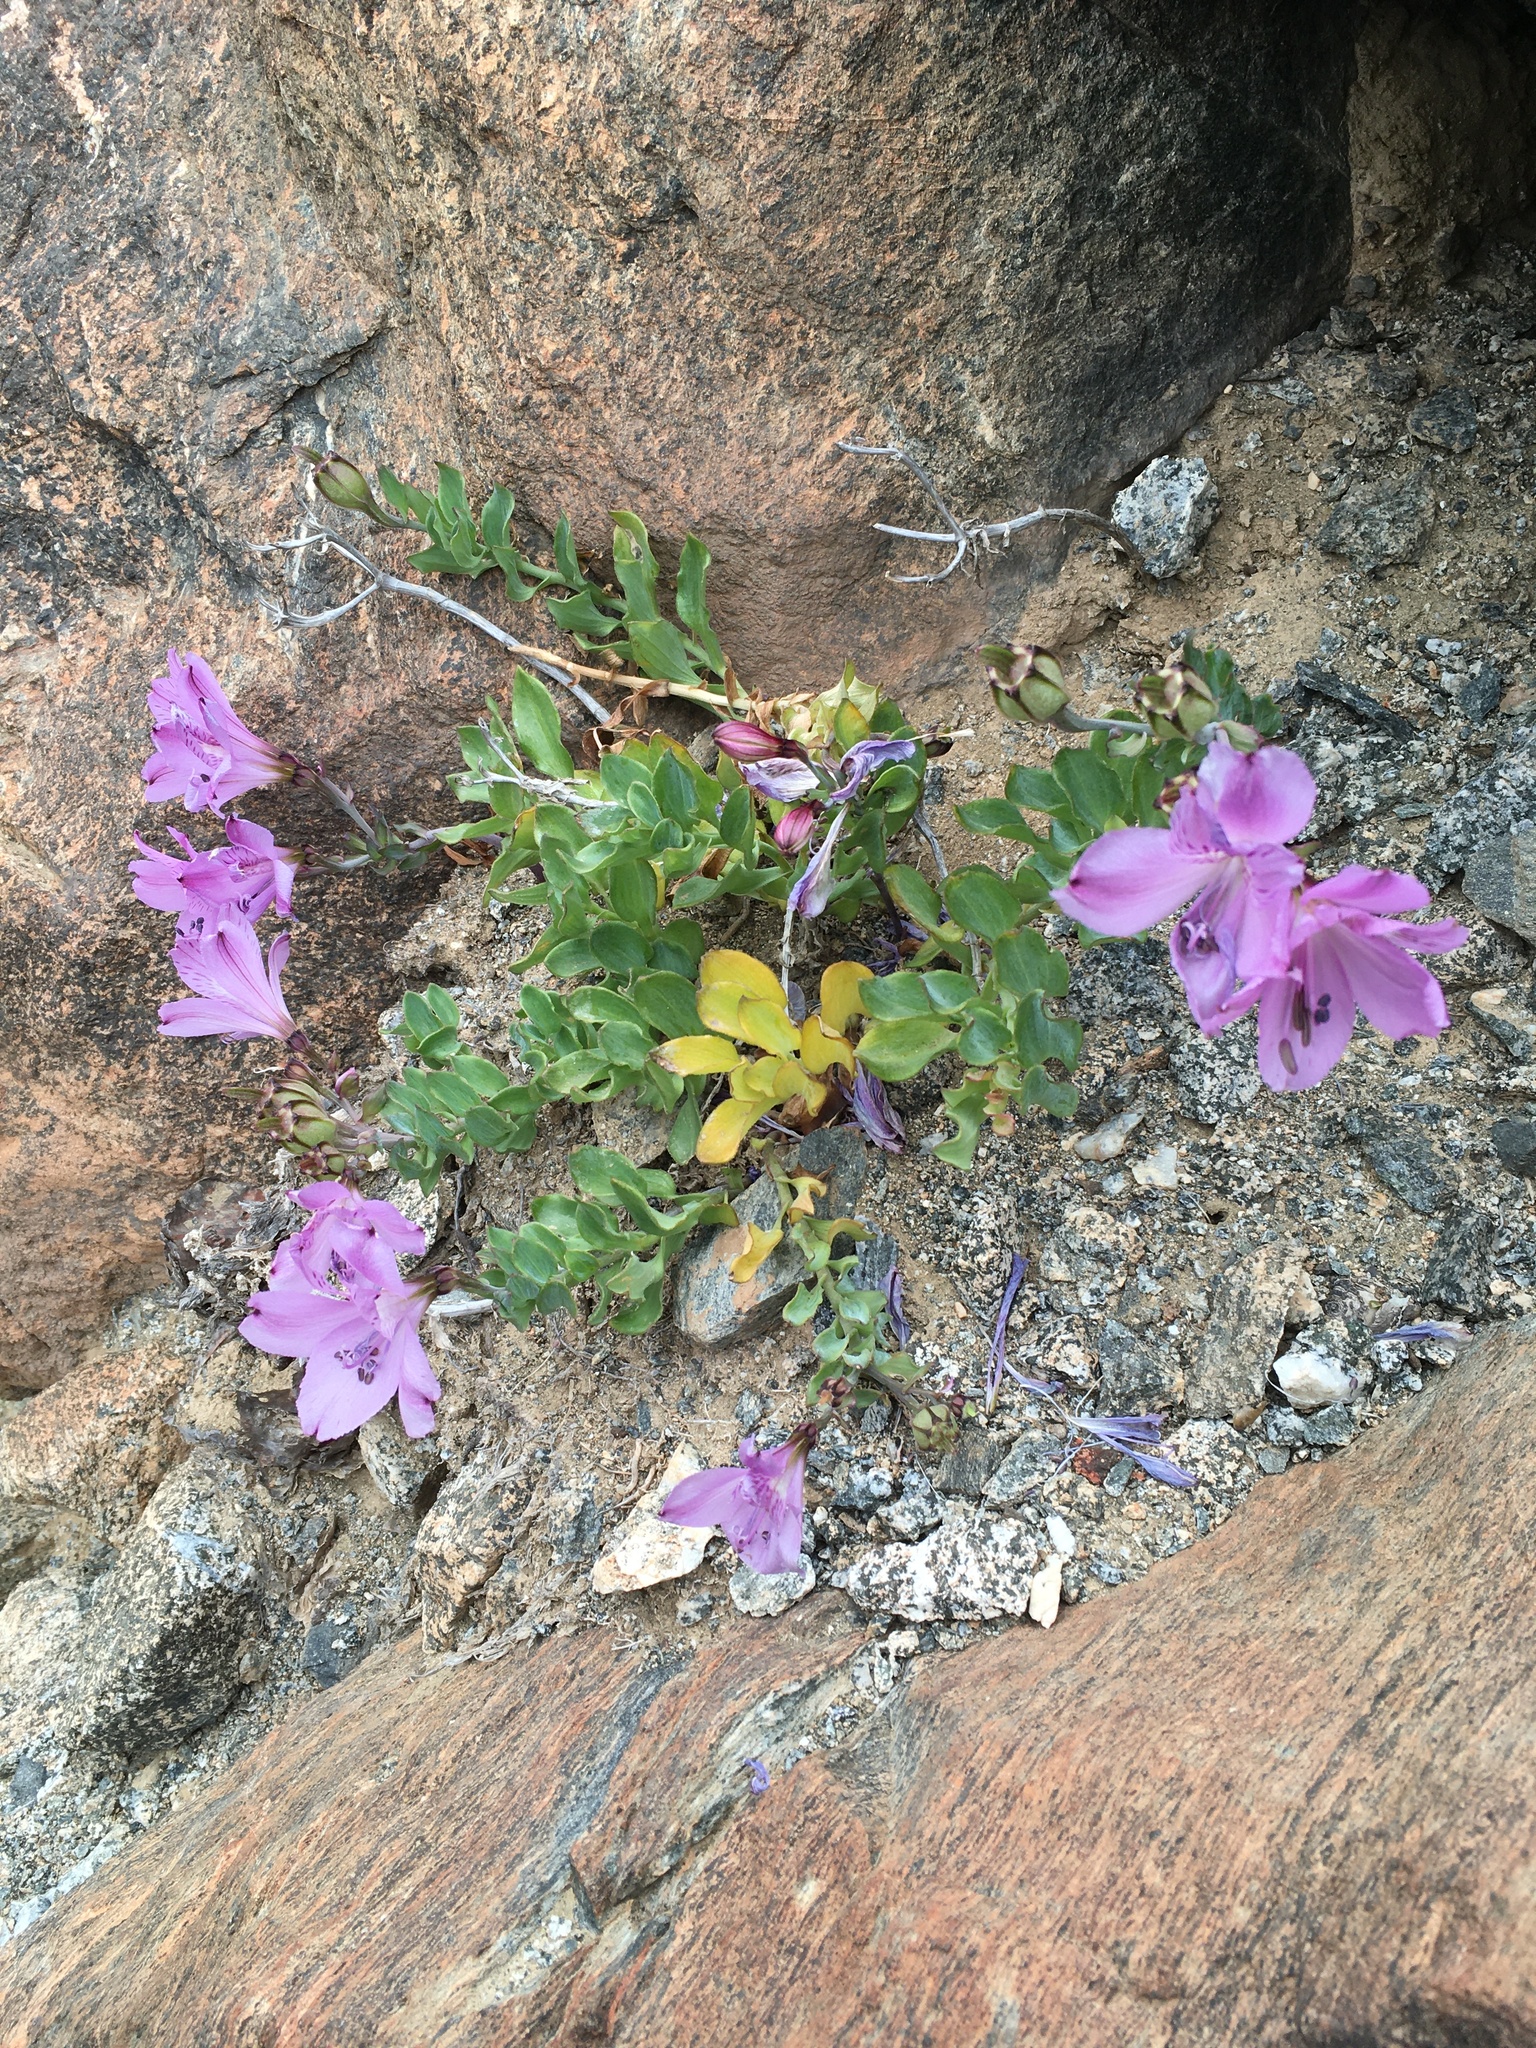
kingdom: Plantae
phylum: Tracheophyta
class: Liliopsida
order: Liliales
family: Alstroemeriaceae
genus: Alstroemeria
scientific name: Alstroemeria violacea
